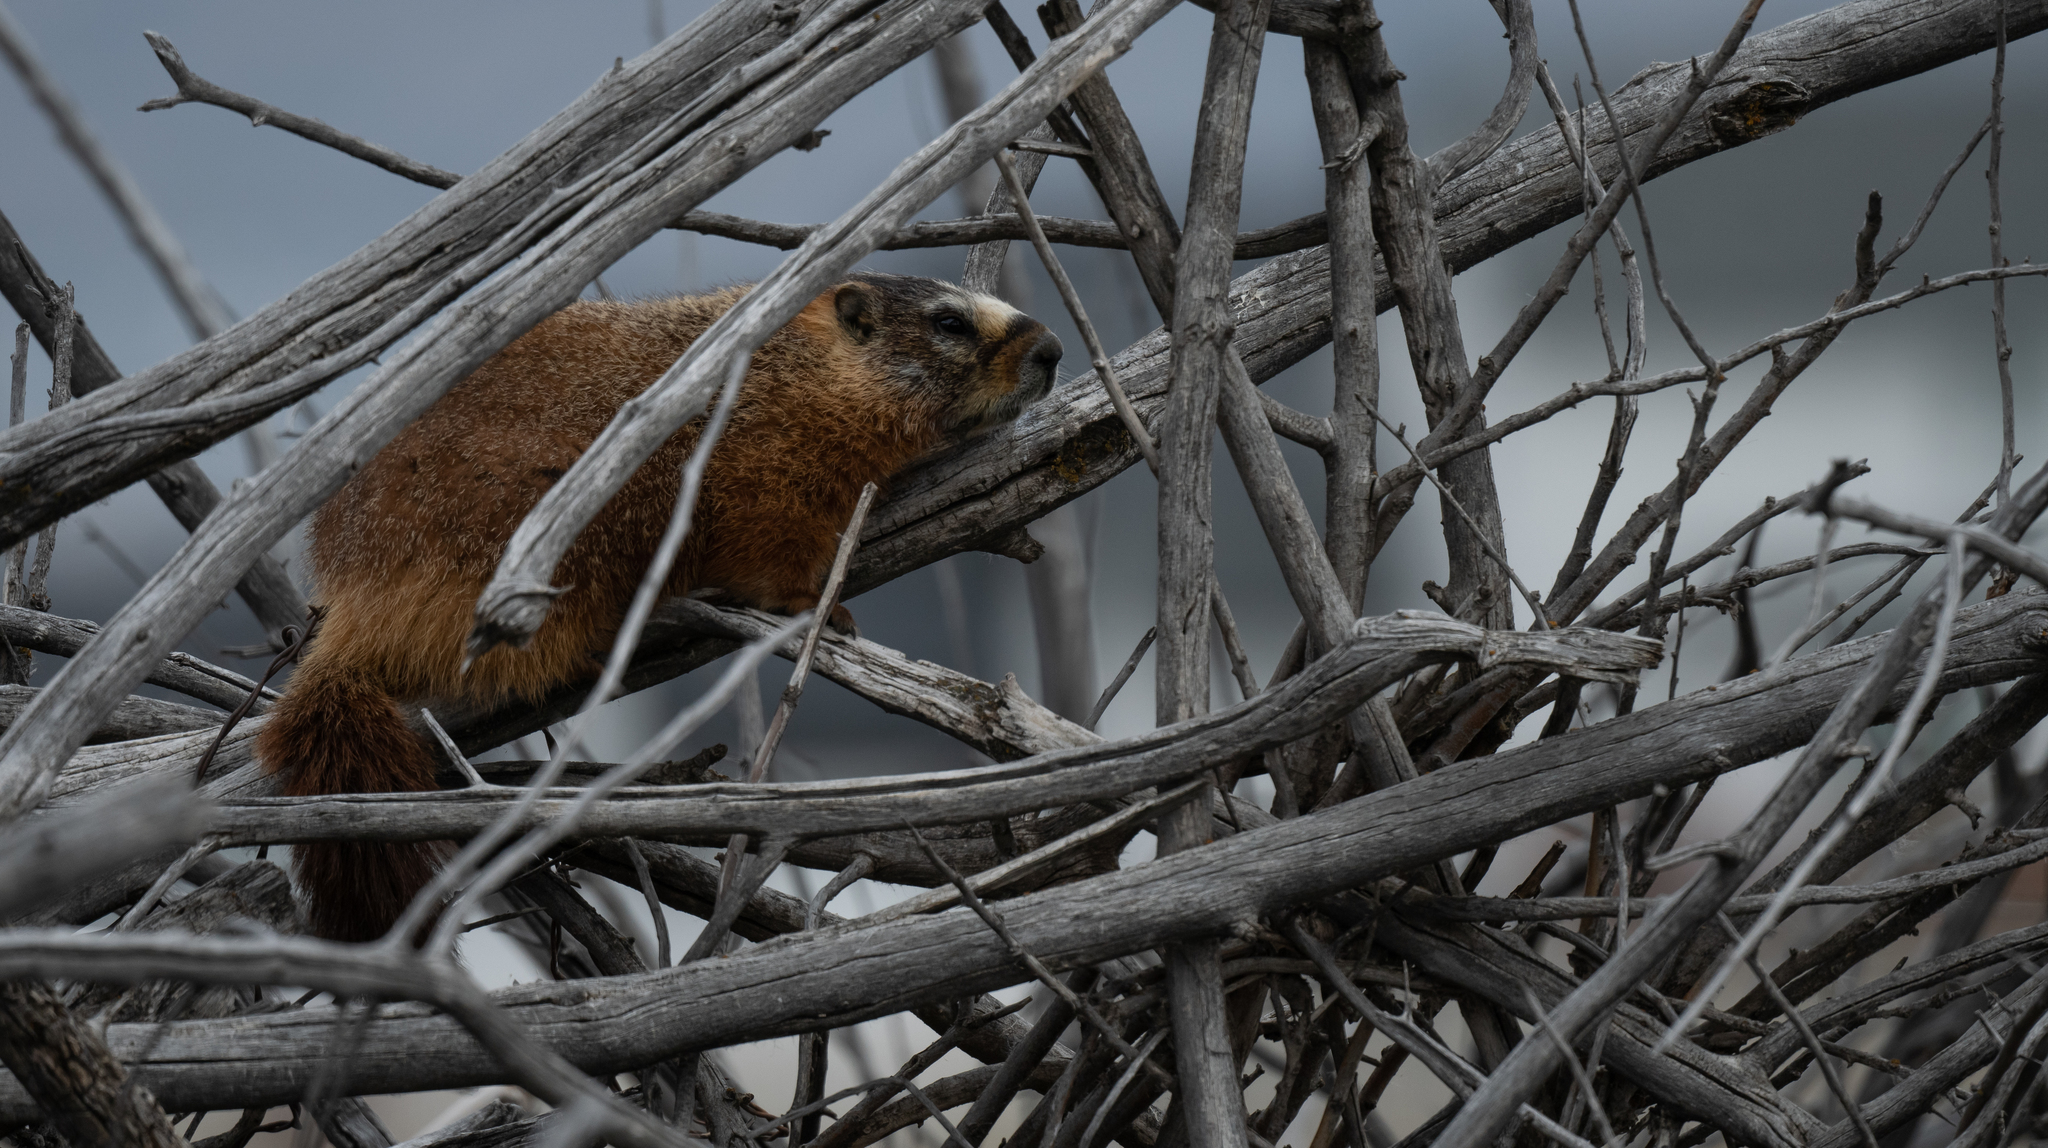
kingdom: Animalia
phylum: Chordata
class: Mammalia
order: Rodentia
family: Sciuridae
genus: Marmota
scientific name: Marmota flaviventris
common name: Yellow-bellied marmot
